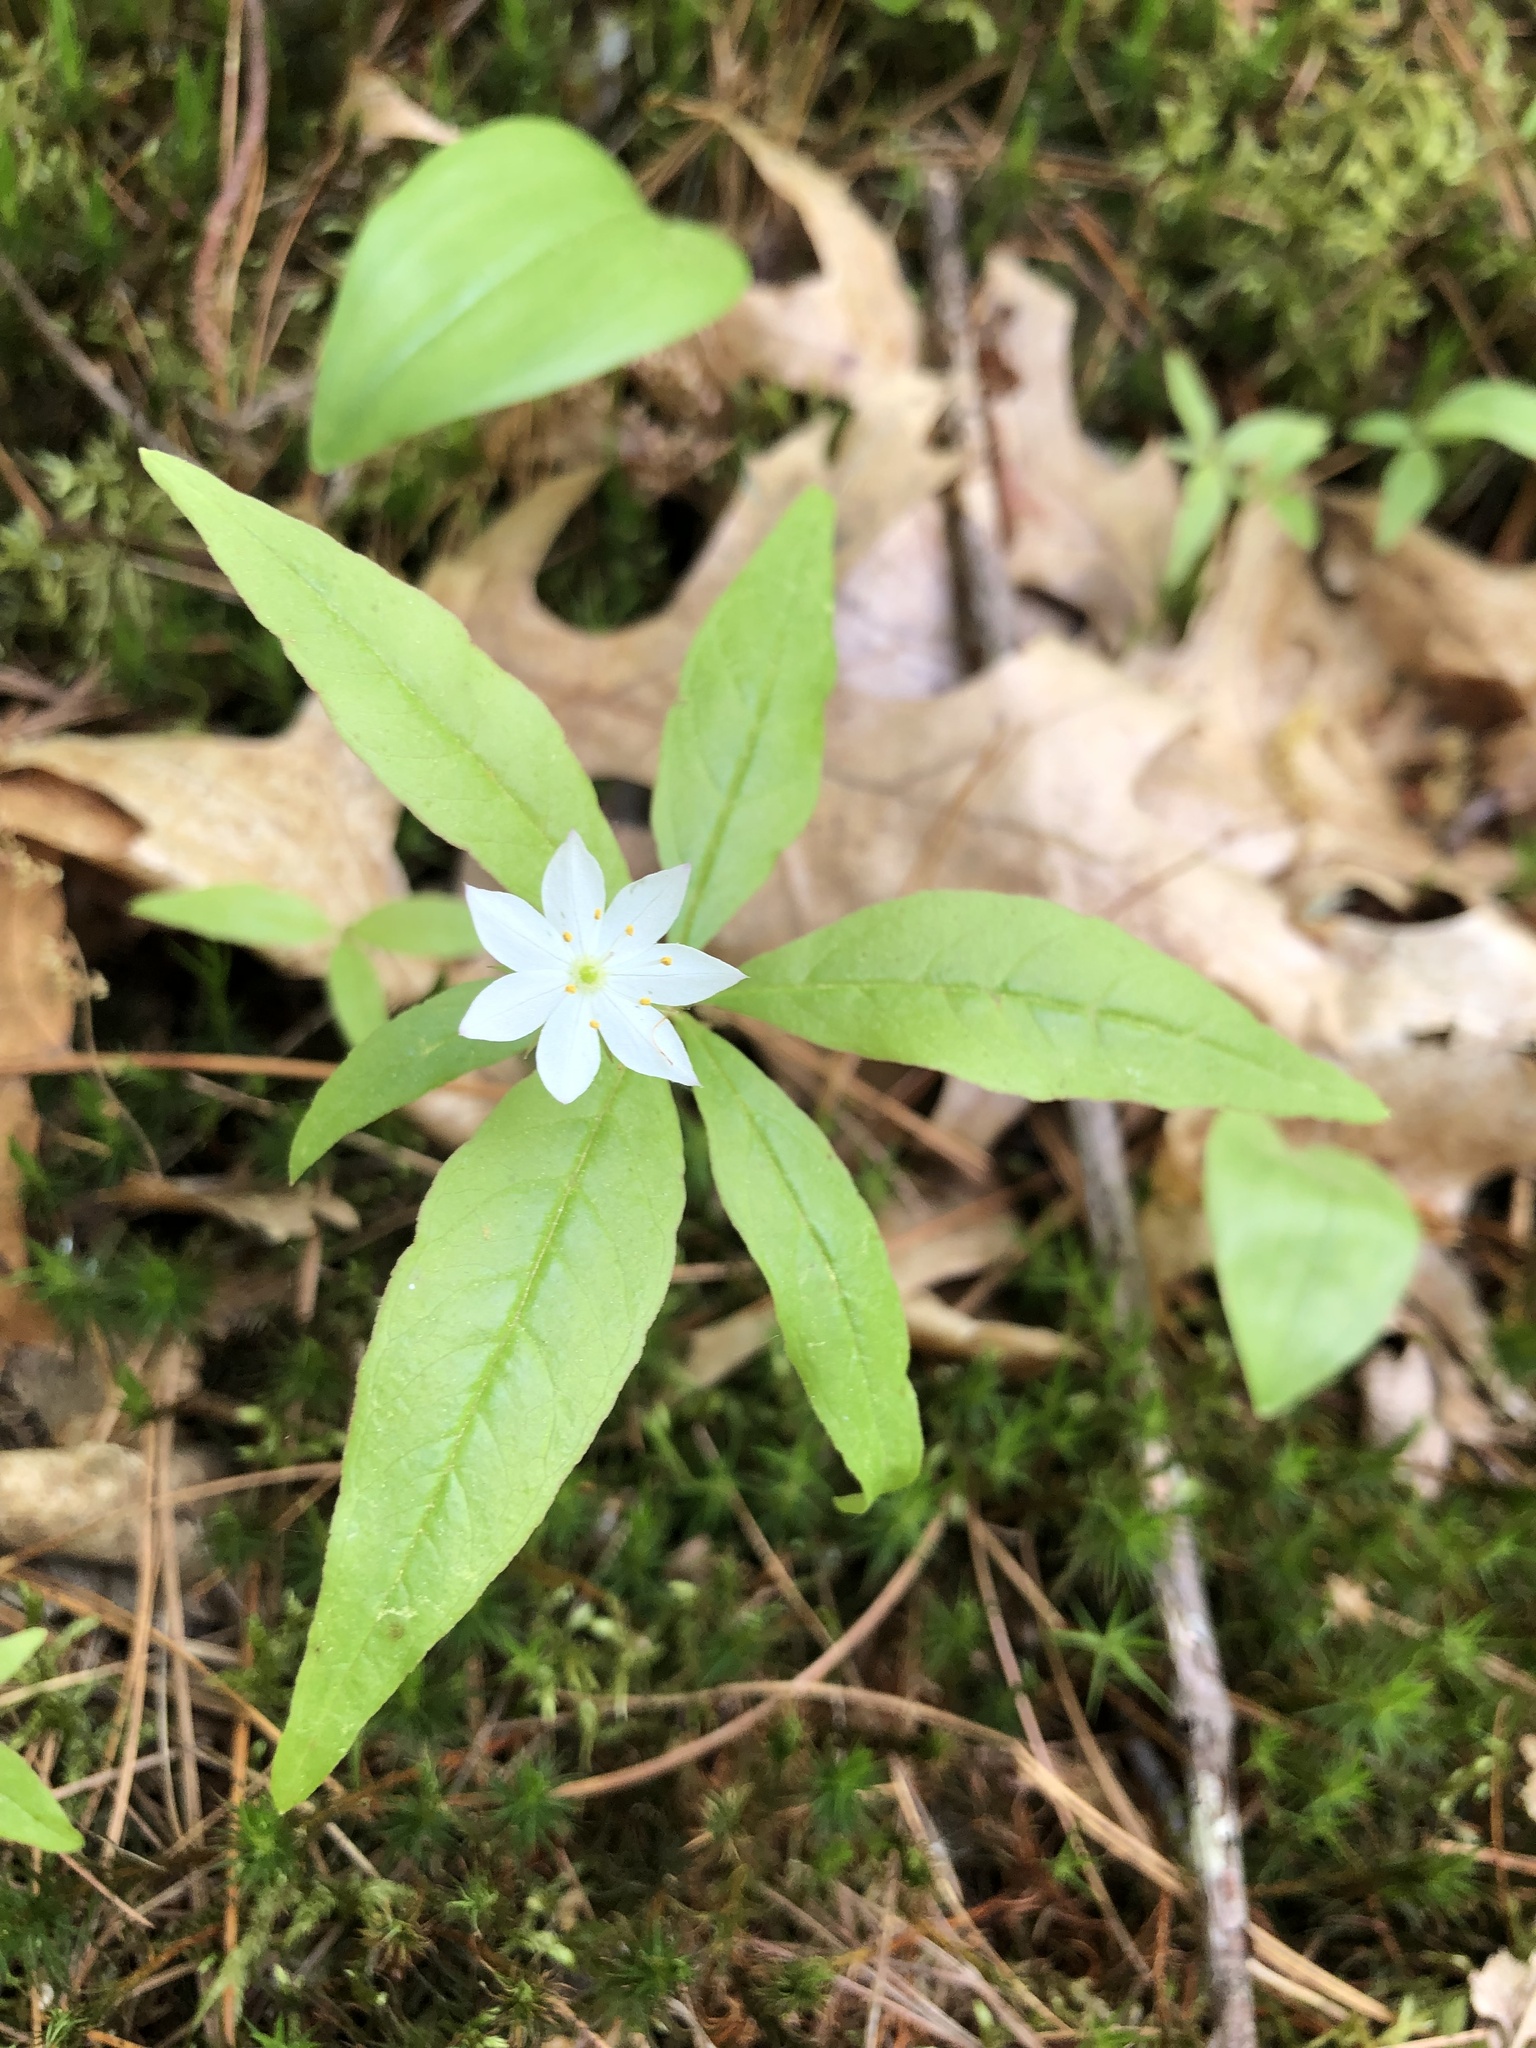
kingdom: Plantae
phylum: Tracheophyta
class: Magnoliopsida
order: Ericales
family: Primulaceae
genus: Lysimachia
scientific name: Lysimachia borealis
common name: American starflower
